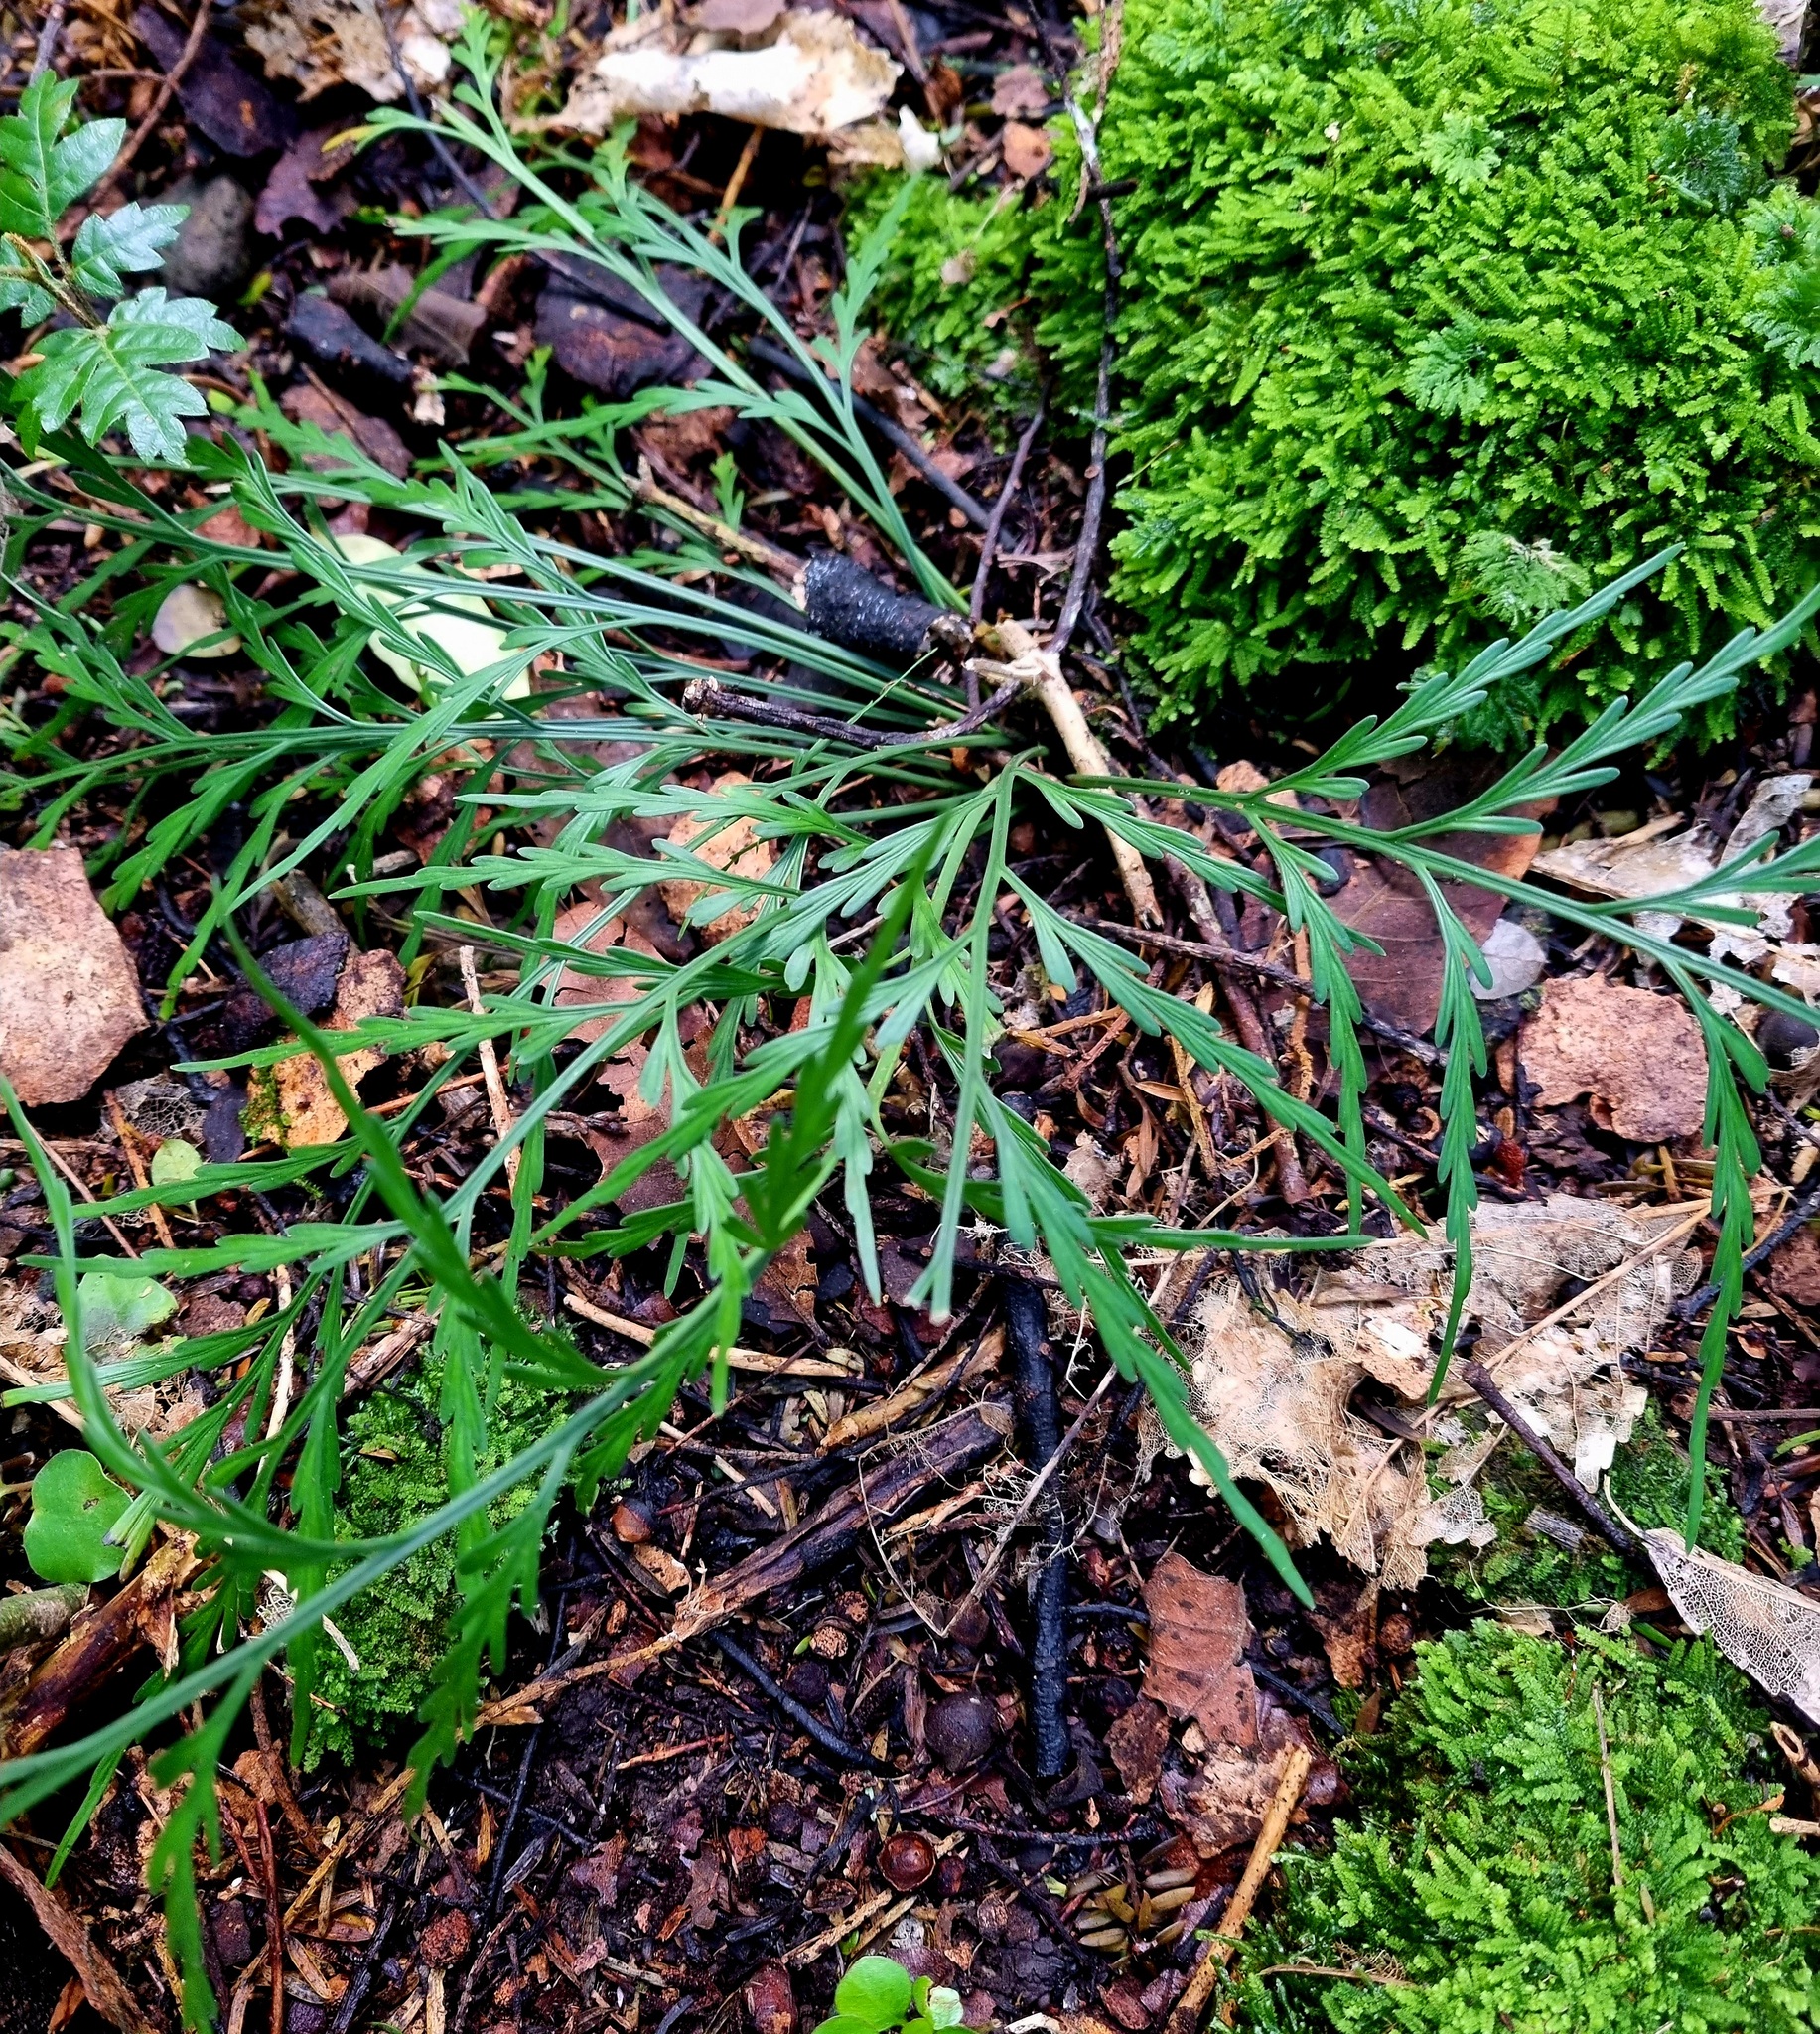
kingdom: Plantae
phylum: Tracheophyta
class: Polypodiopsida
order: Polypodiales
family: Aspleniaceae
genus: Asplenium
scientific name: Asplenium flaccidum
